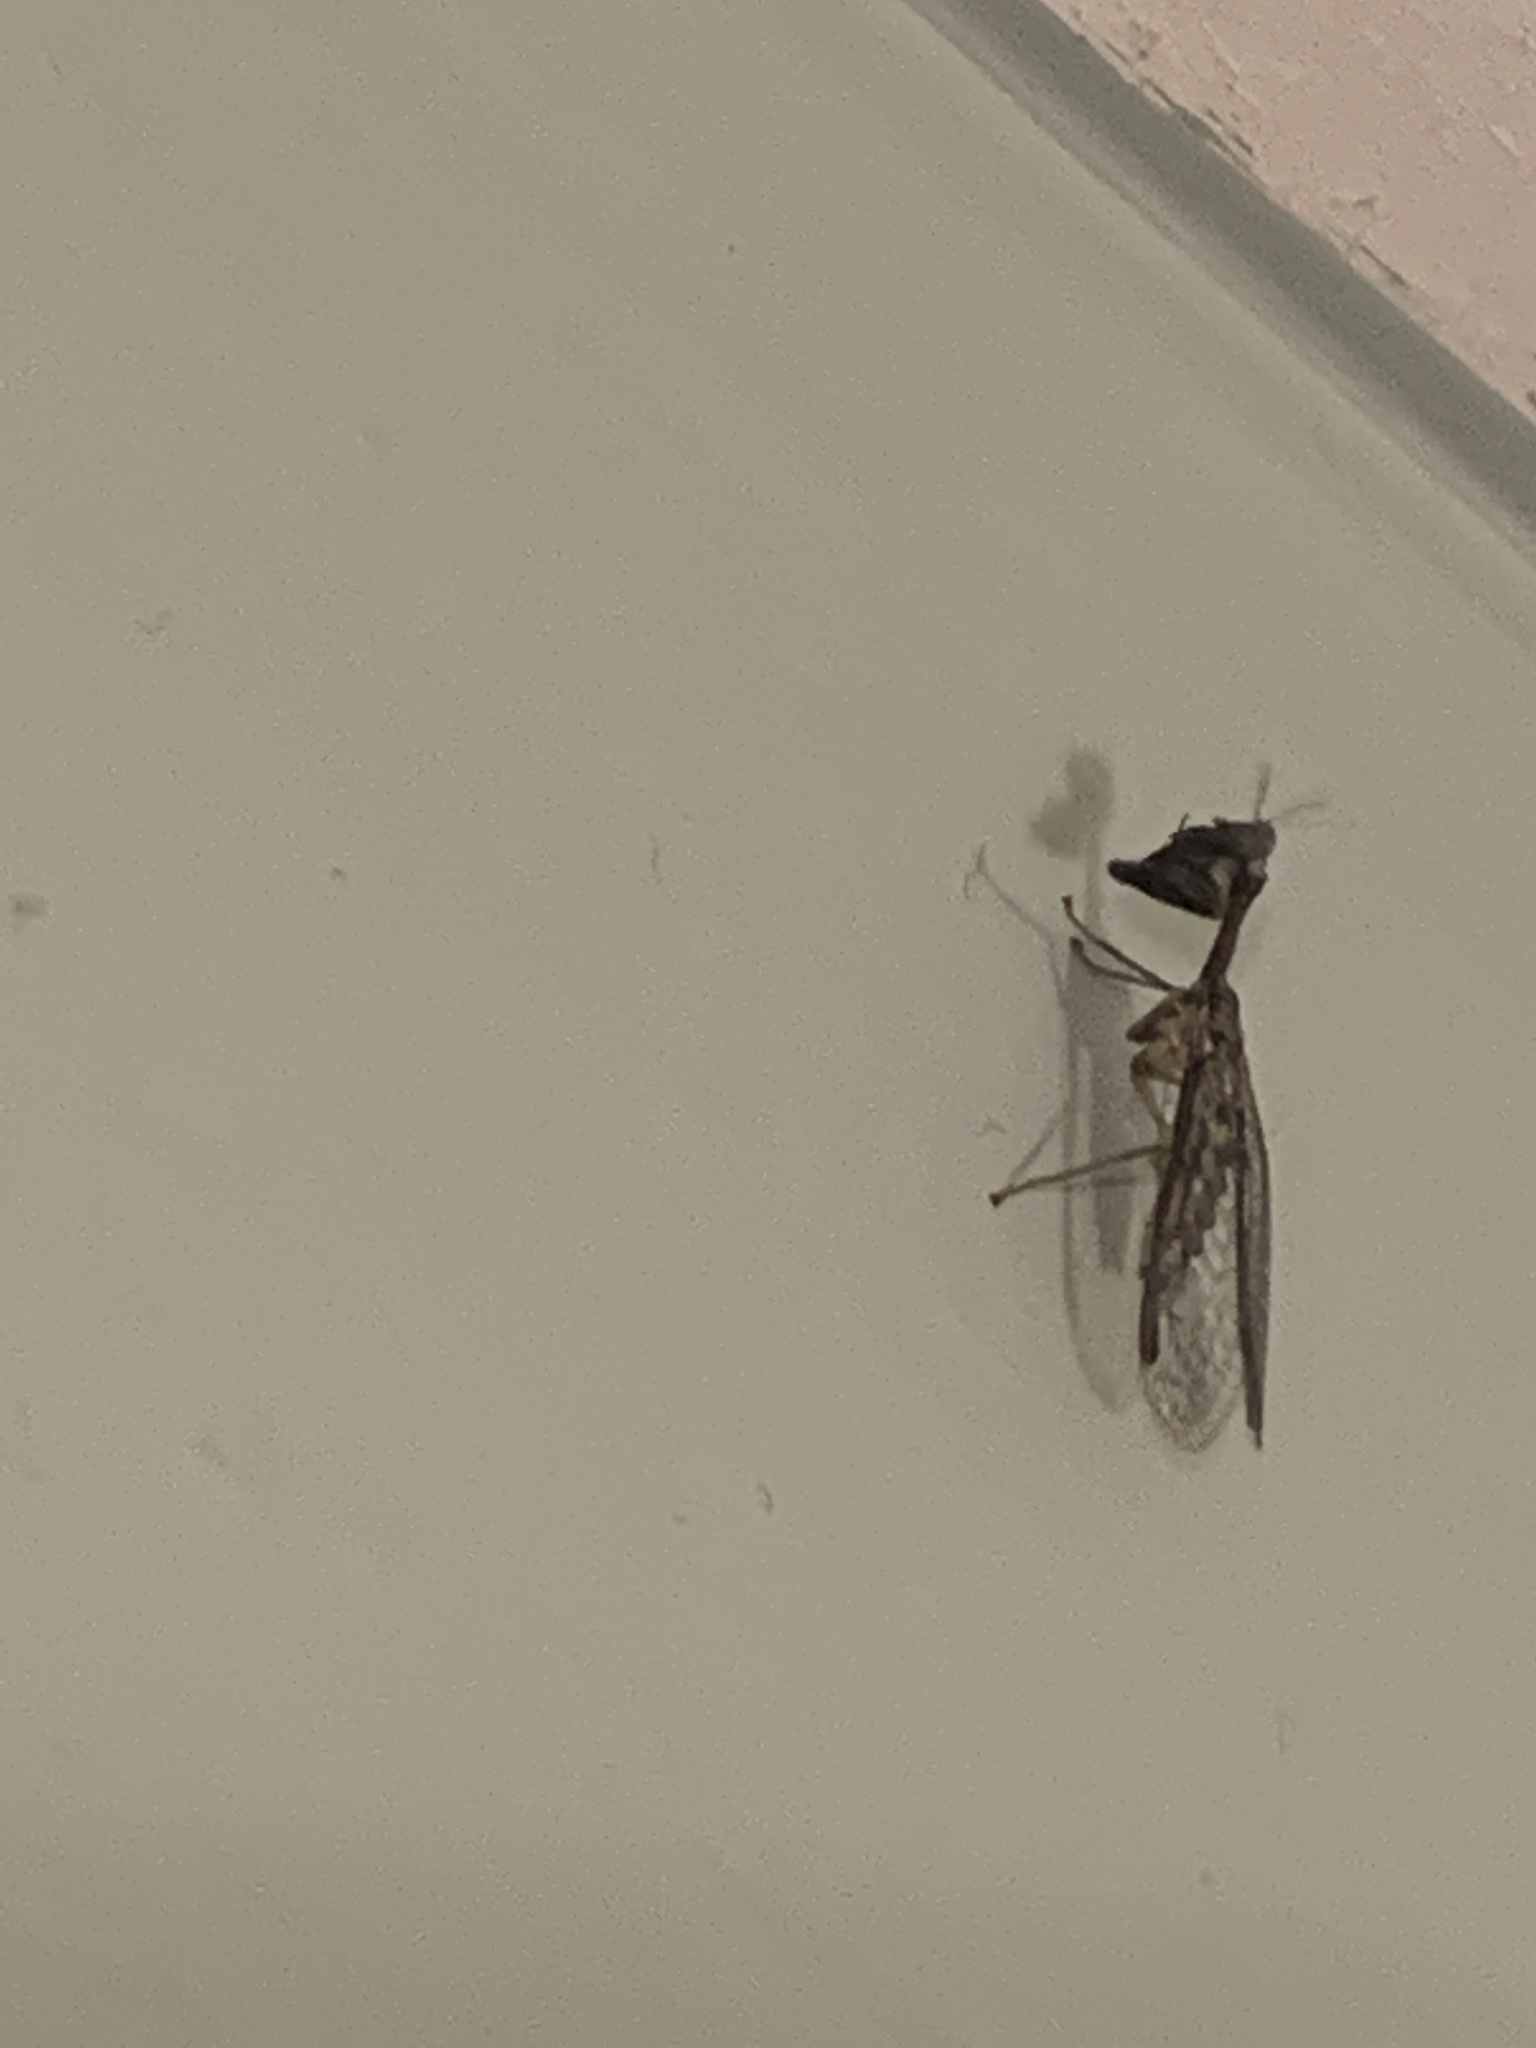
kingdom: Animalia
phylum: Arthropoda
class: Insecta
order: Neuroptera
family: Mantispidae
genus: Dicromantispa
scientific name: Dicromantispa sayi
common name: Say's mantidfly
